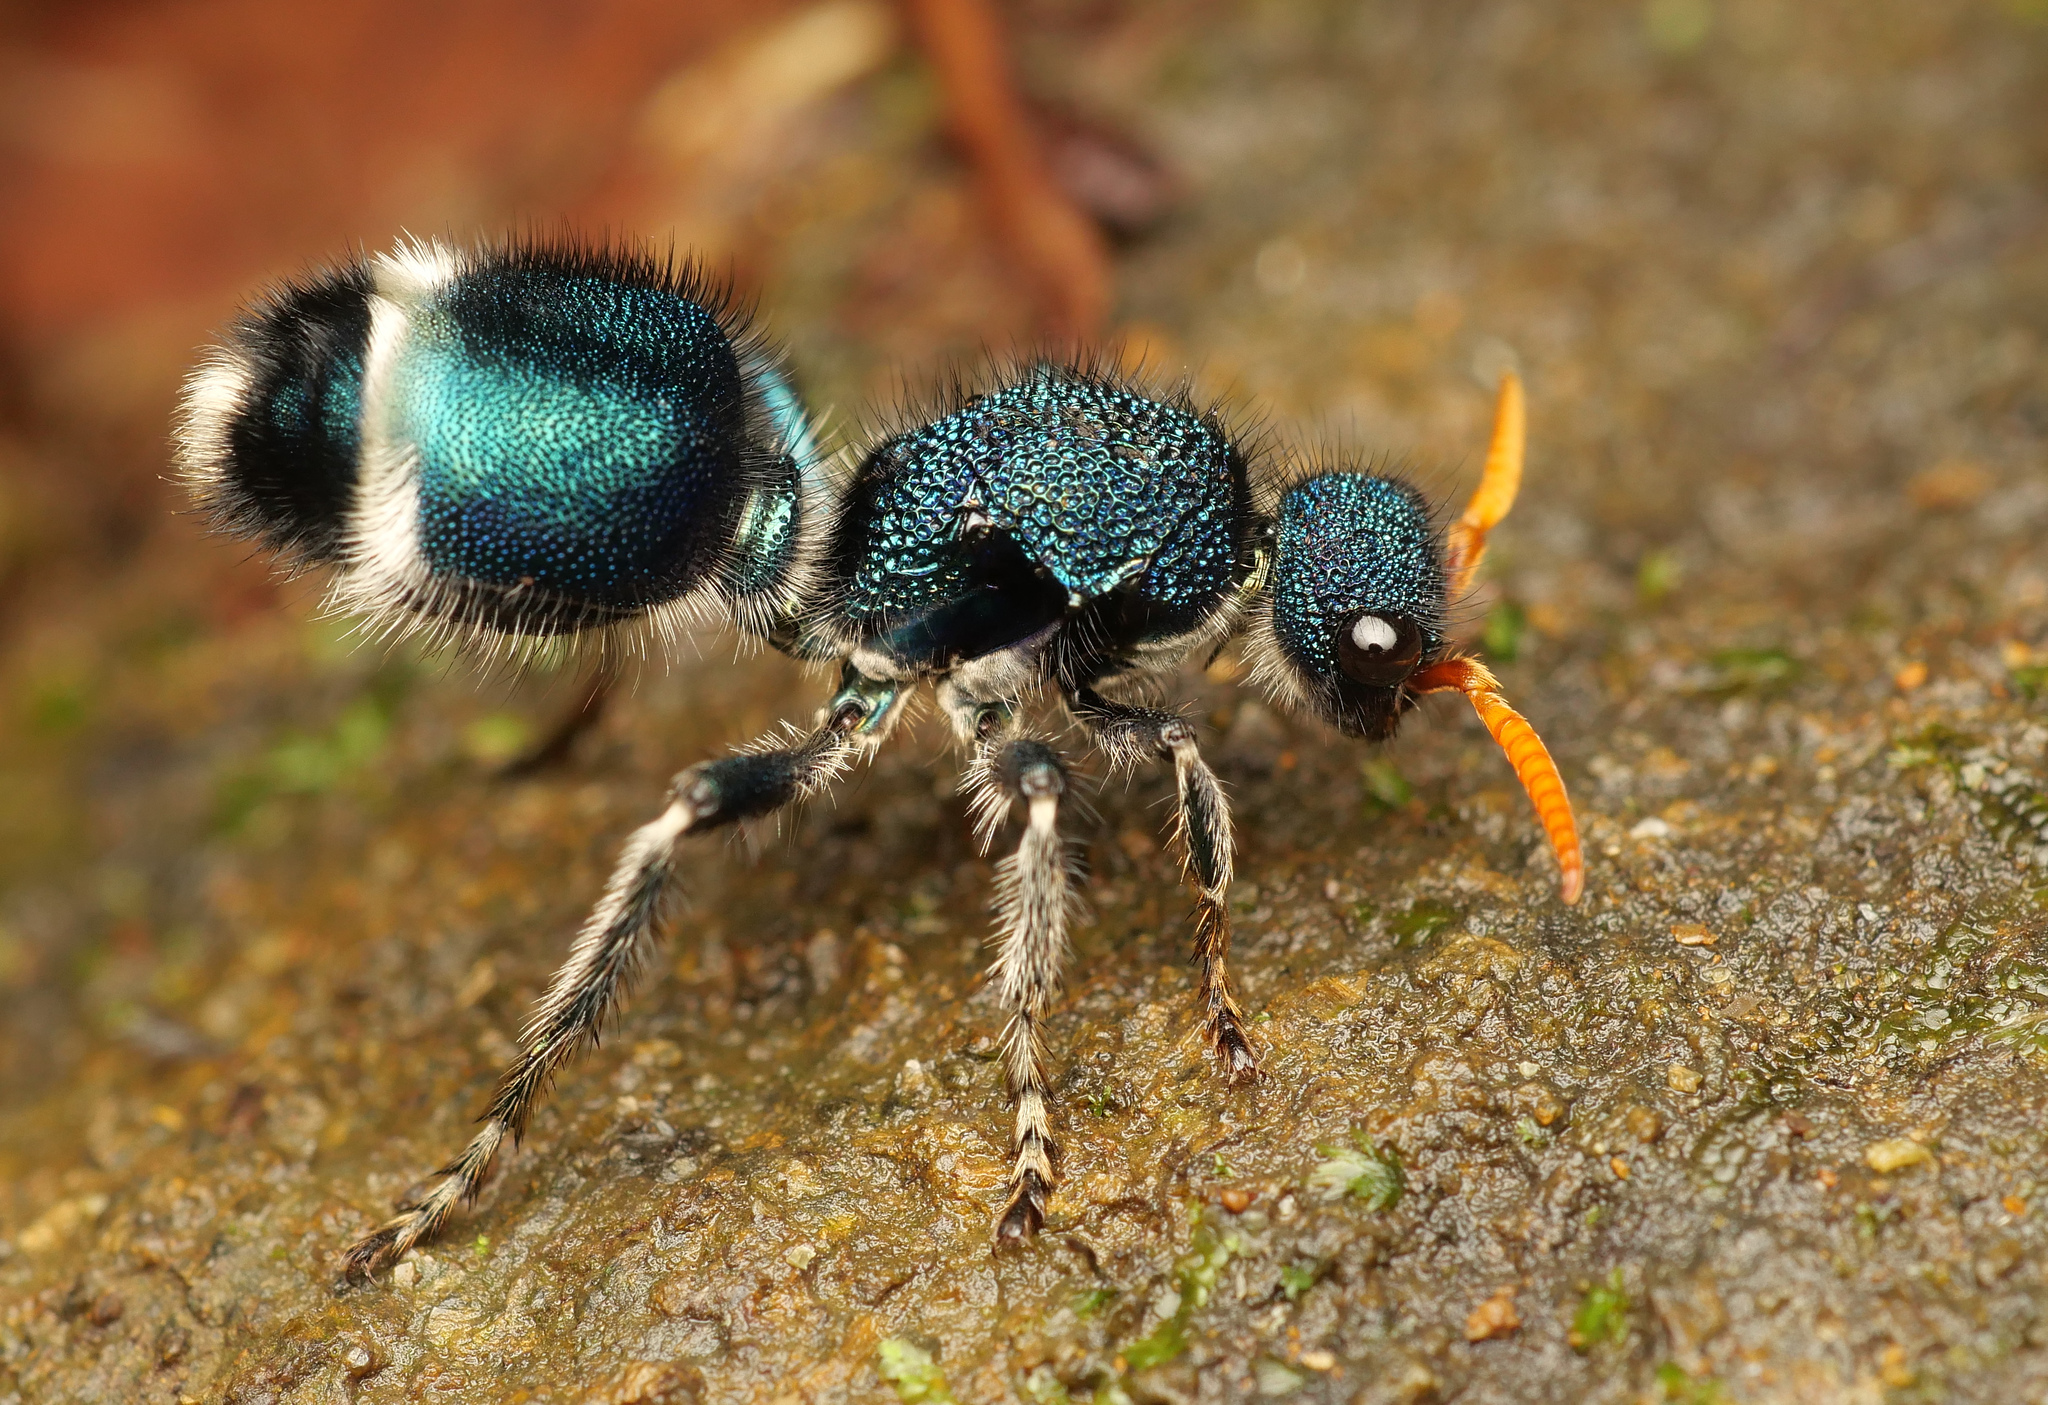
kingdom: Animalia
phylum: Arthropoda
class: Insecta
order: Hymenoptera
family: Mutillidae
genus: Ephutomorpha
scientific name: Ephutomorpha
